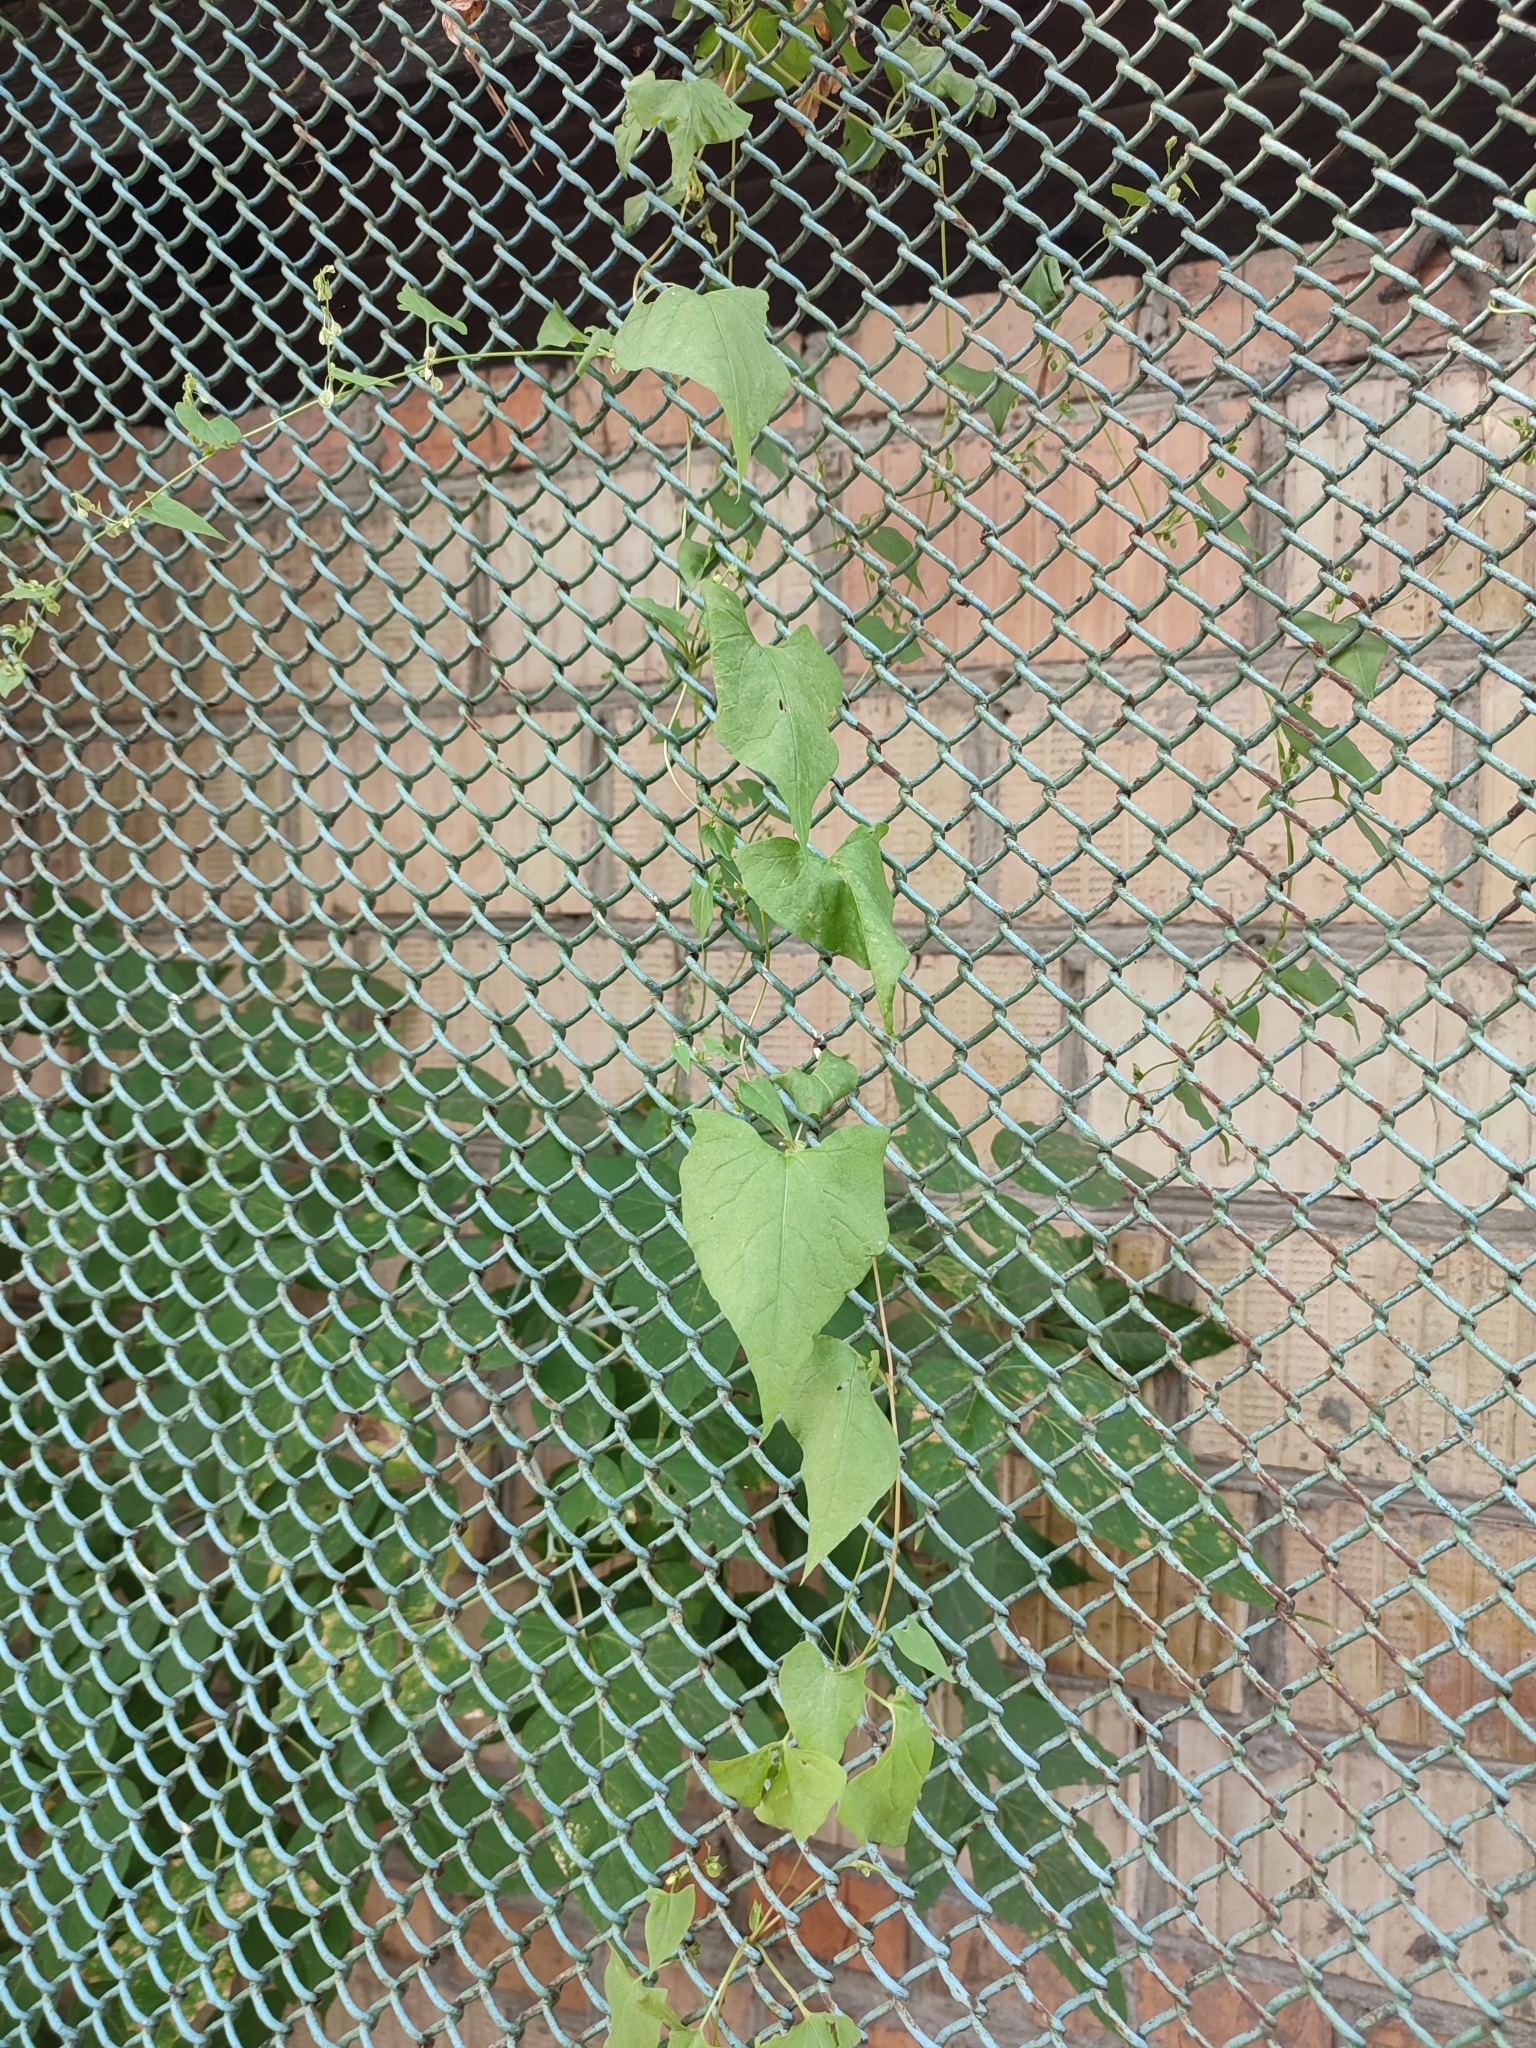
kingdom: Plantae
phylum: Tracheophyta
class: Magnoliopsida
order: Caryophyllales
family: Polygonaceae
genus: Fallopia
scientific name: Fallopia dumetorum
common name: Copse-bindweed
